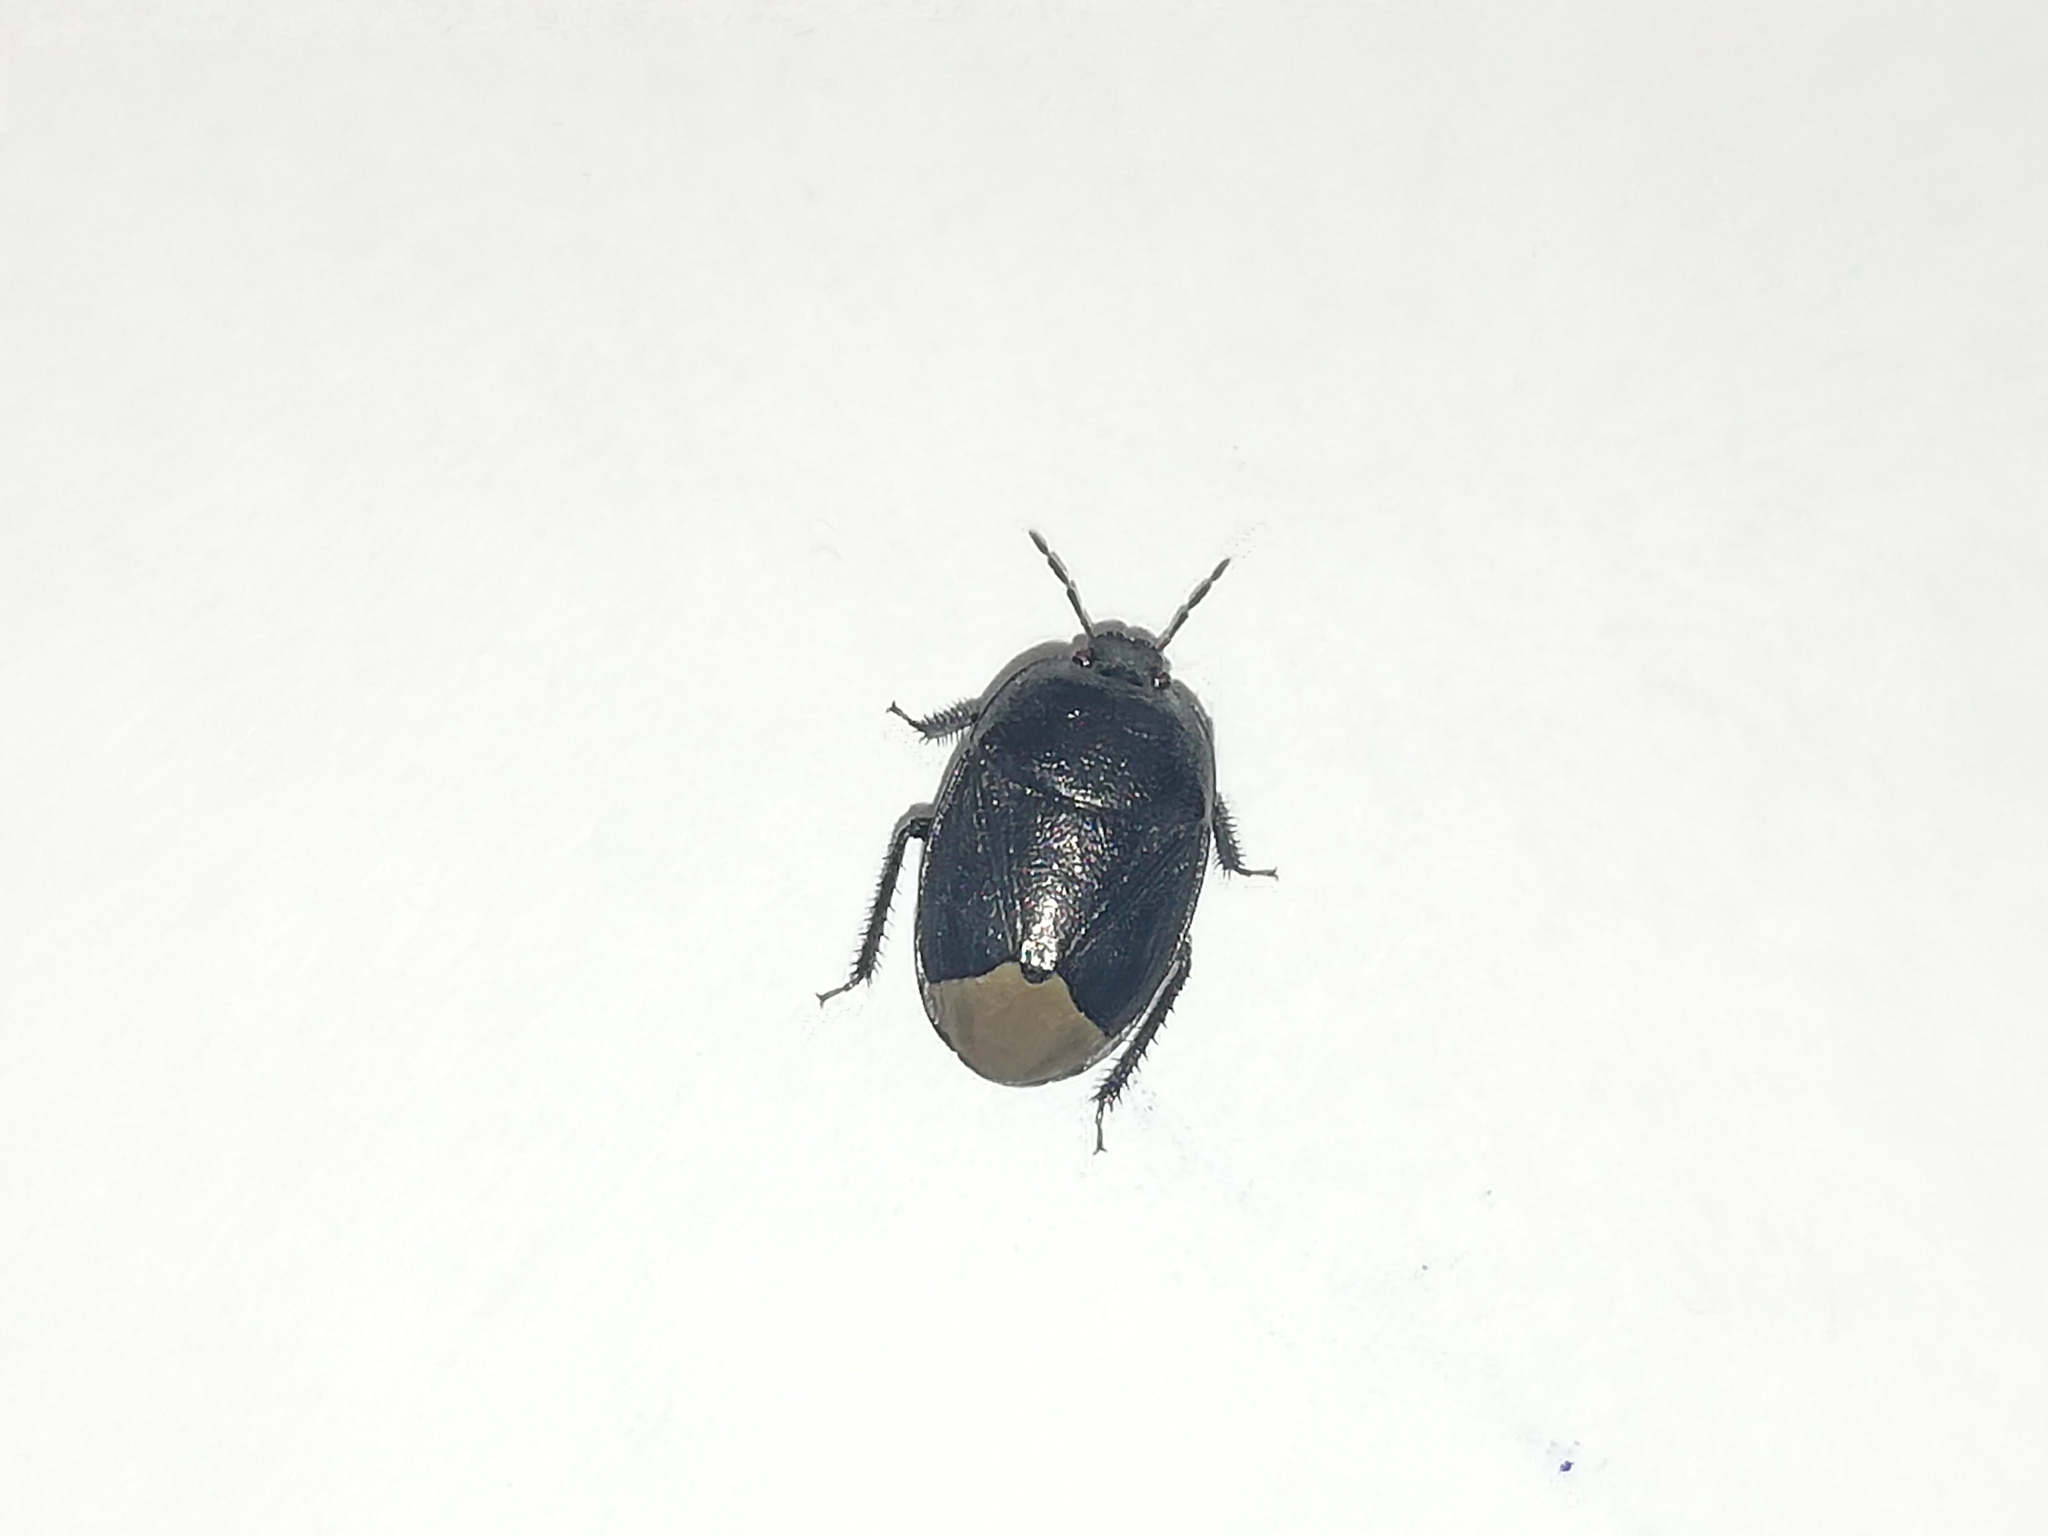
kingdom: Animalia
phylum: Arthropoda
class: Insecta
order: Hemiptera
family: Cydnidae
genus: Sehirus
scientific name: Sehirus luctuosus
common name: Forget-me-not shieldbug
